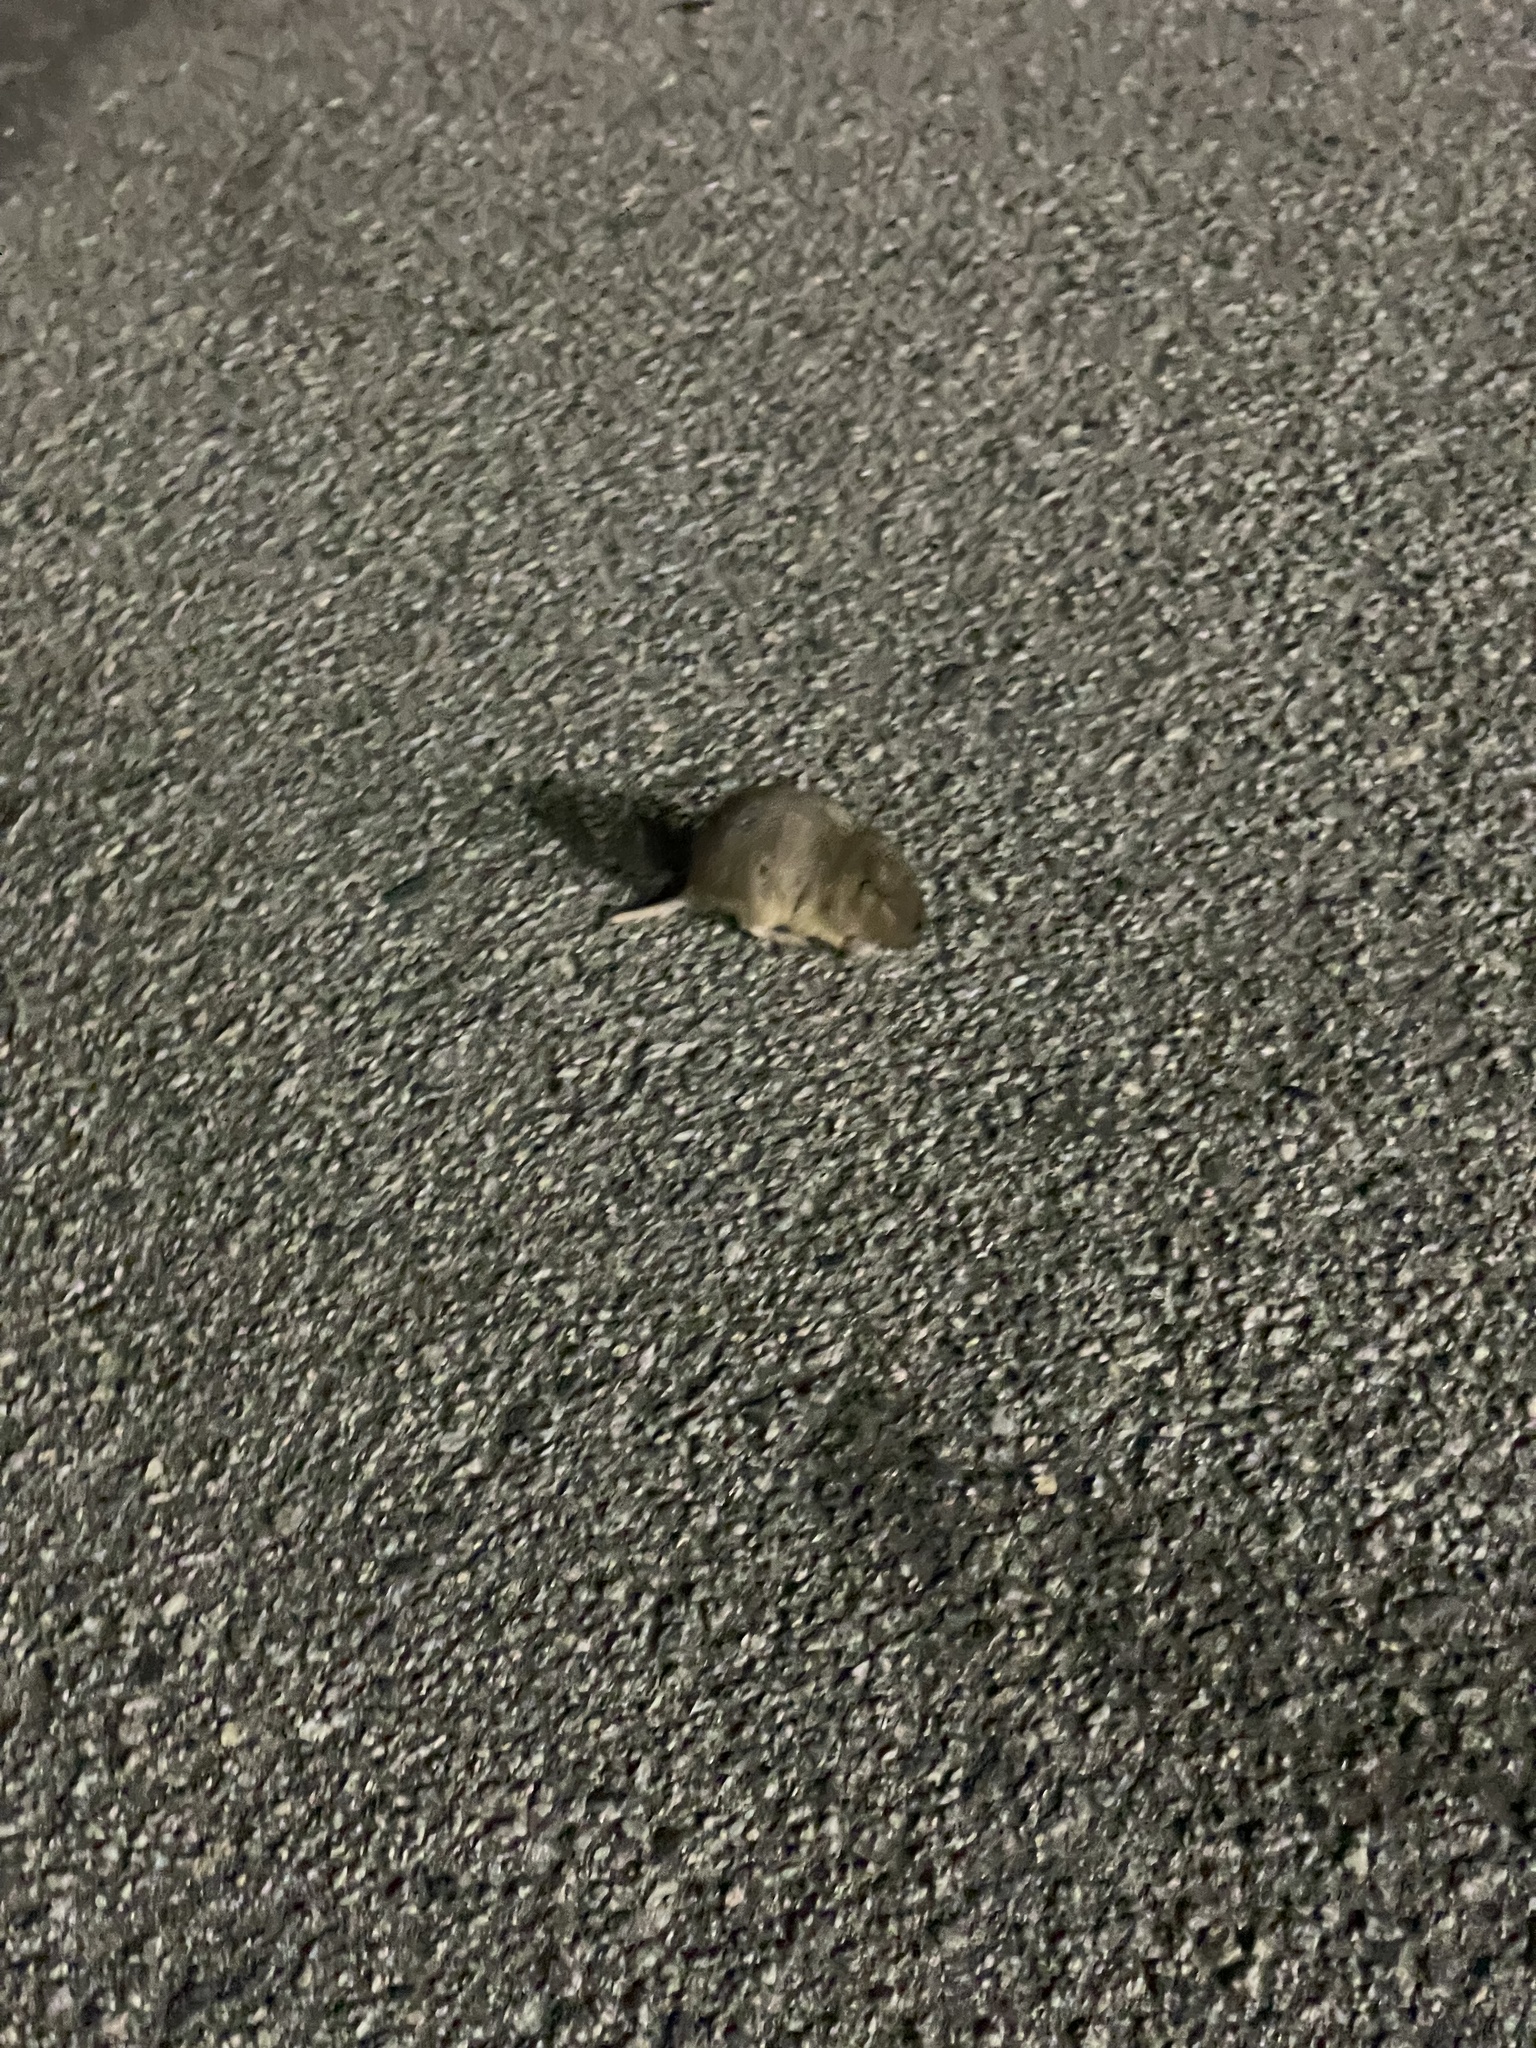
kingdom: Animalia
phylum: Chordata
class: Mammalia
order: Rodentia
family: Geomyidae
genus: Thomomys
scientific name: Thomomys bottae
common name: Botta's pocket gopher
